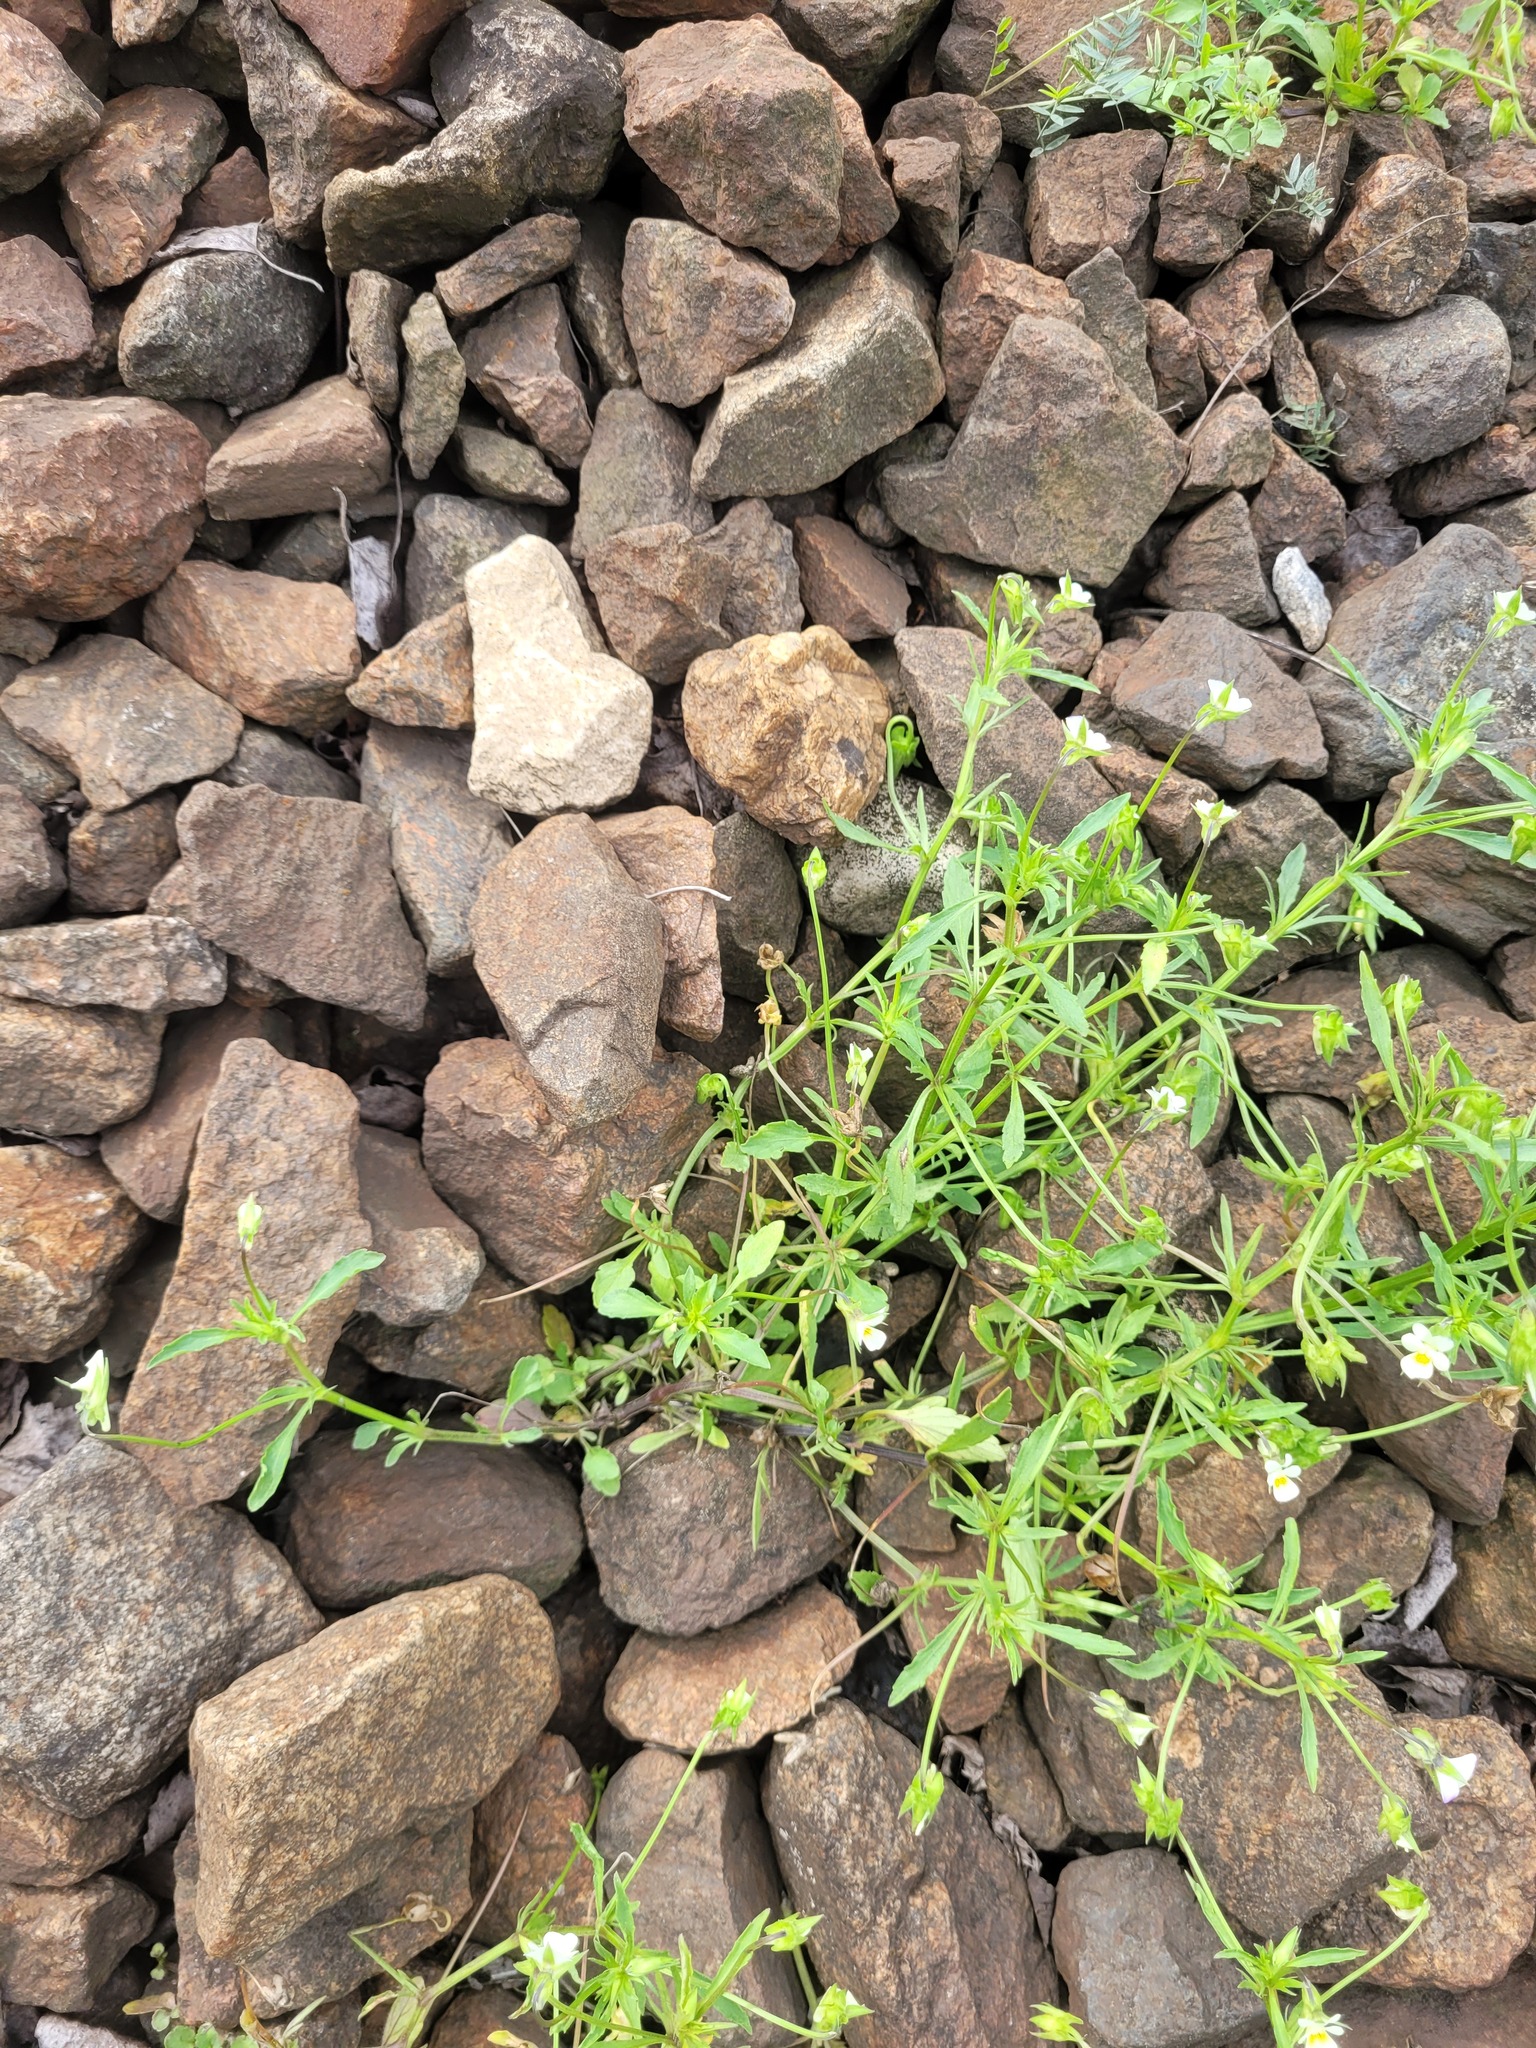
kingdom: Plantae
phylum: Tracheophyta
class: Magnoliopsida
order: Malpighiales
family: Violaceae
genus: Viola
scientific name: Viola arvensis
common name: Field pansy
